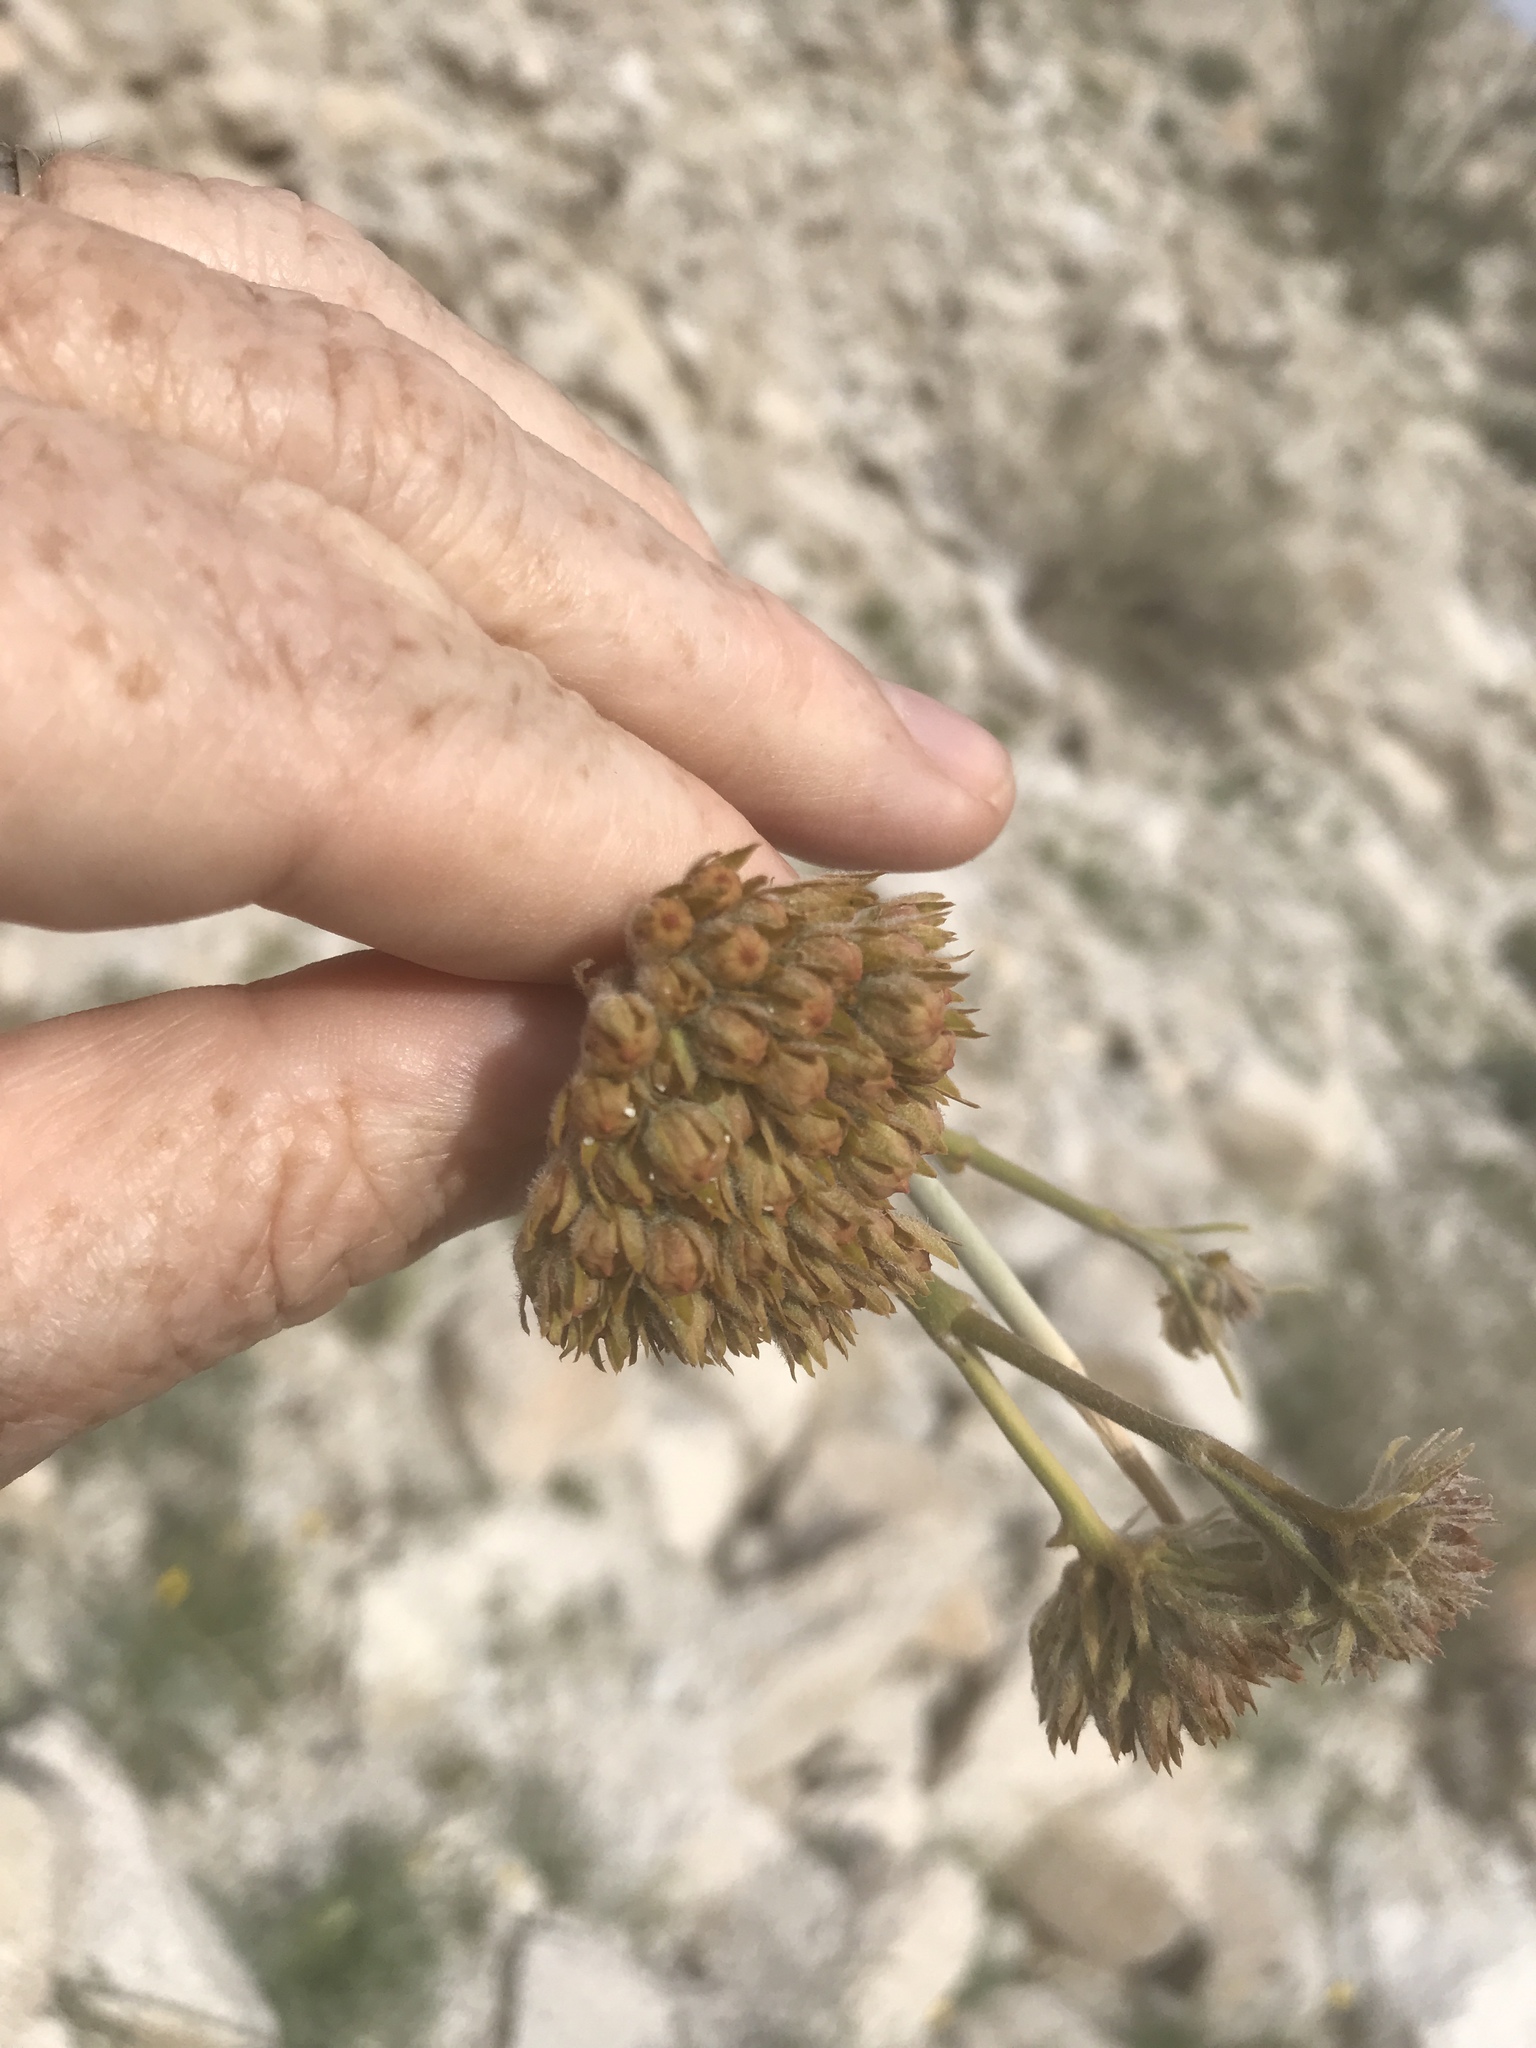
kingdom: Plantae
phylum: Tracheophyta
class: Magnoliopsida
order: Gentianales
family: Apocynaceae
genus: Asclepias
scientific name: Asclepias albicans
